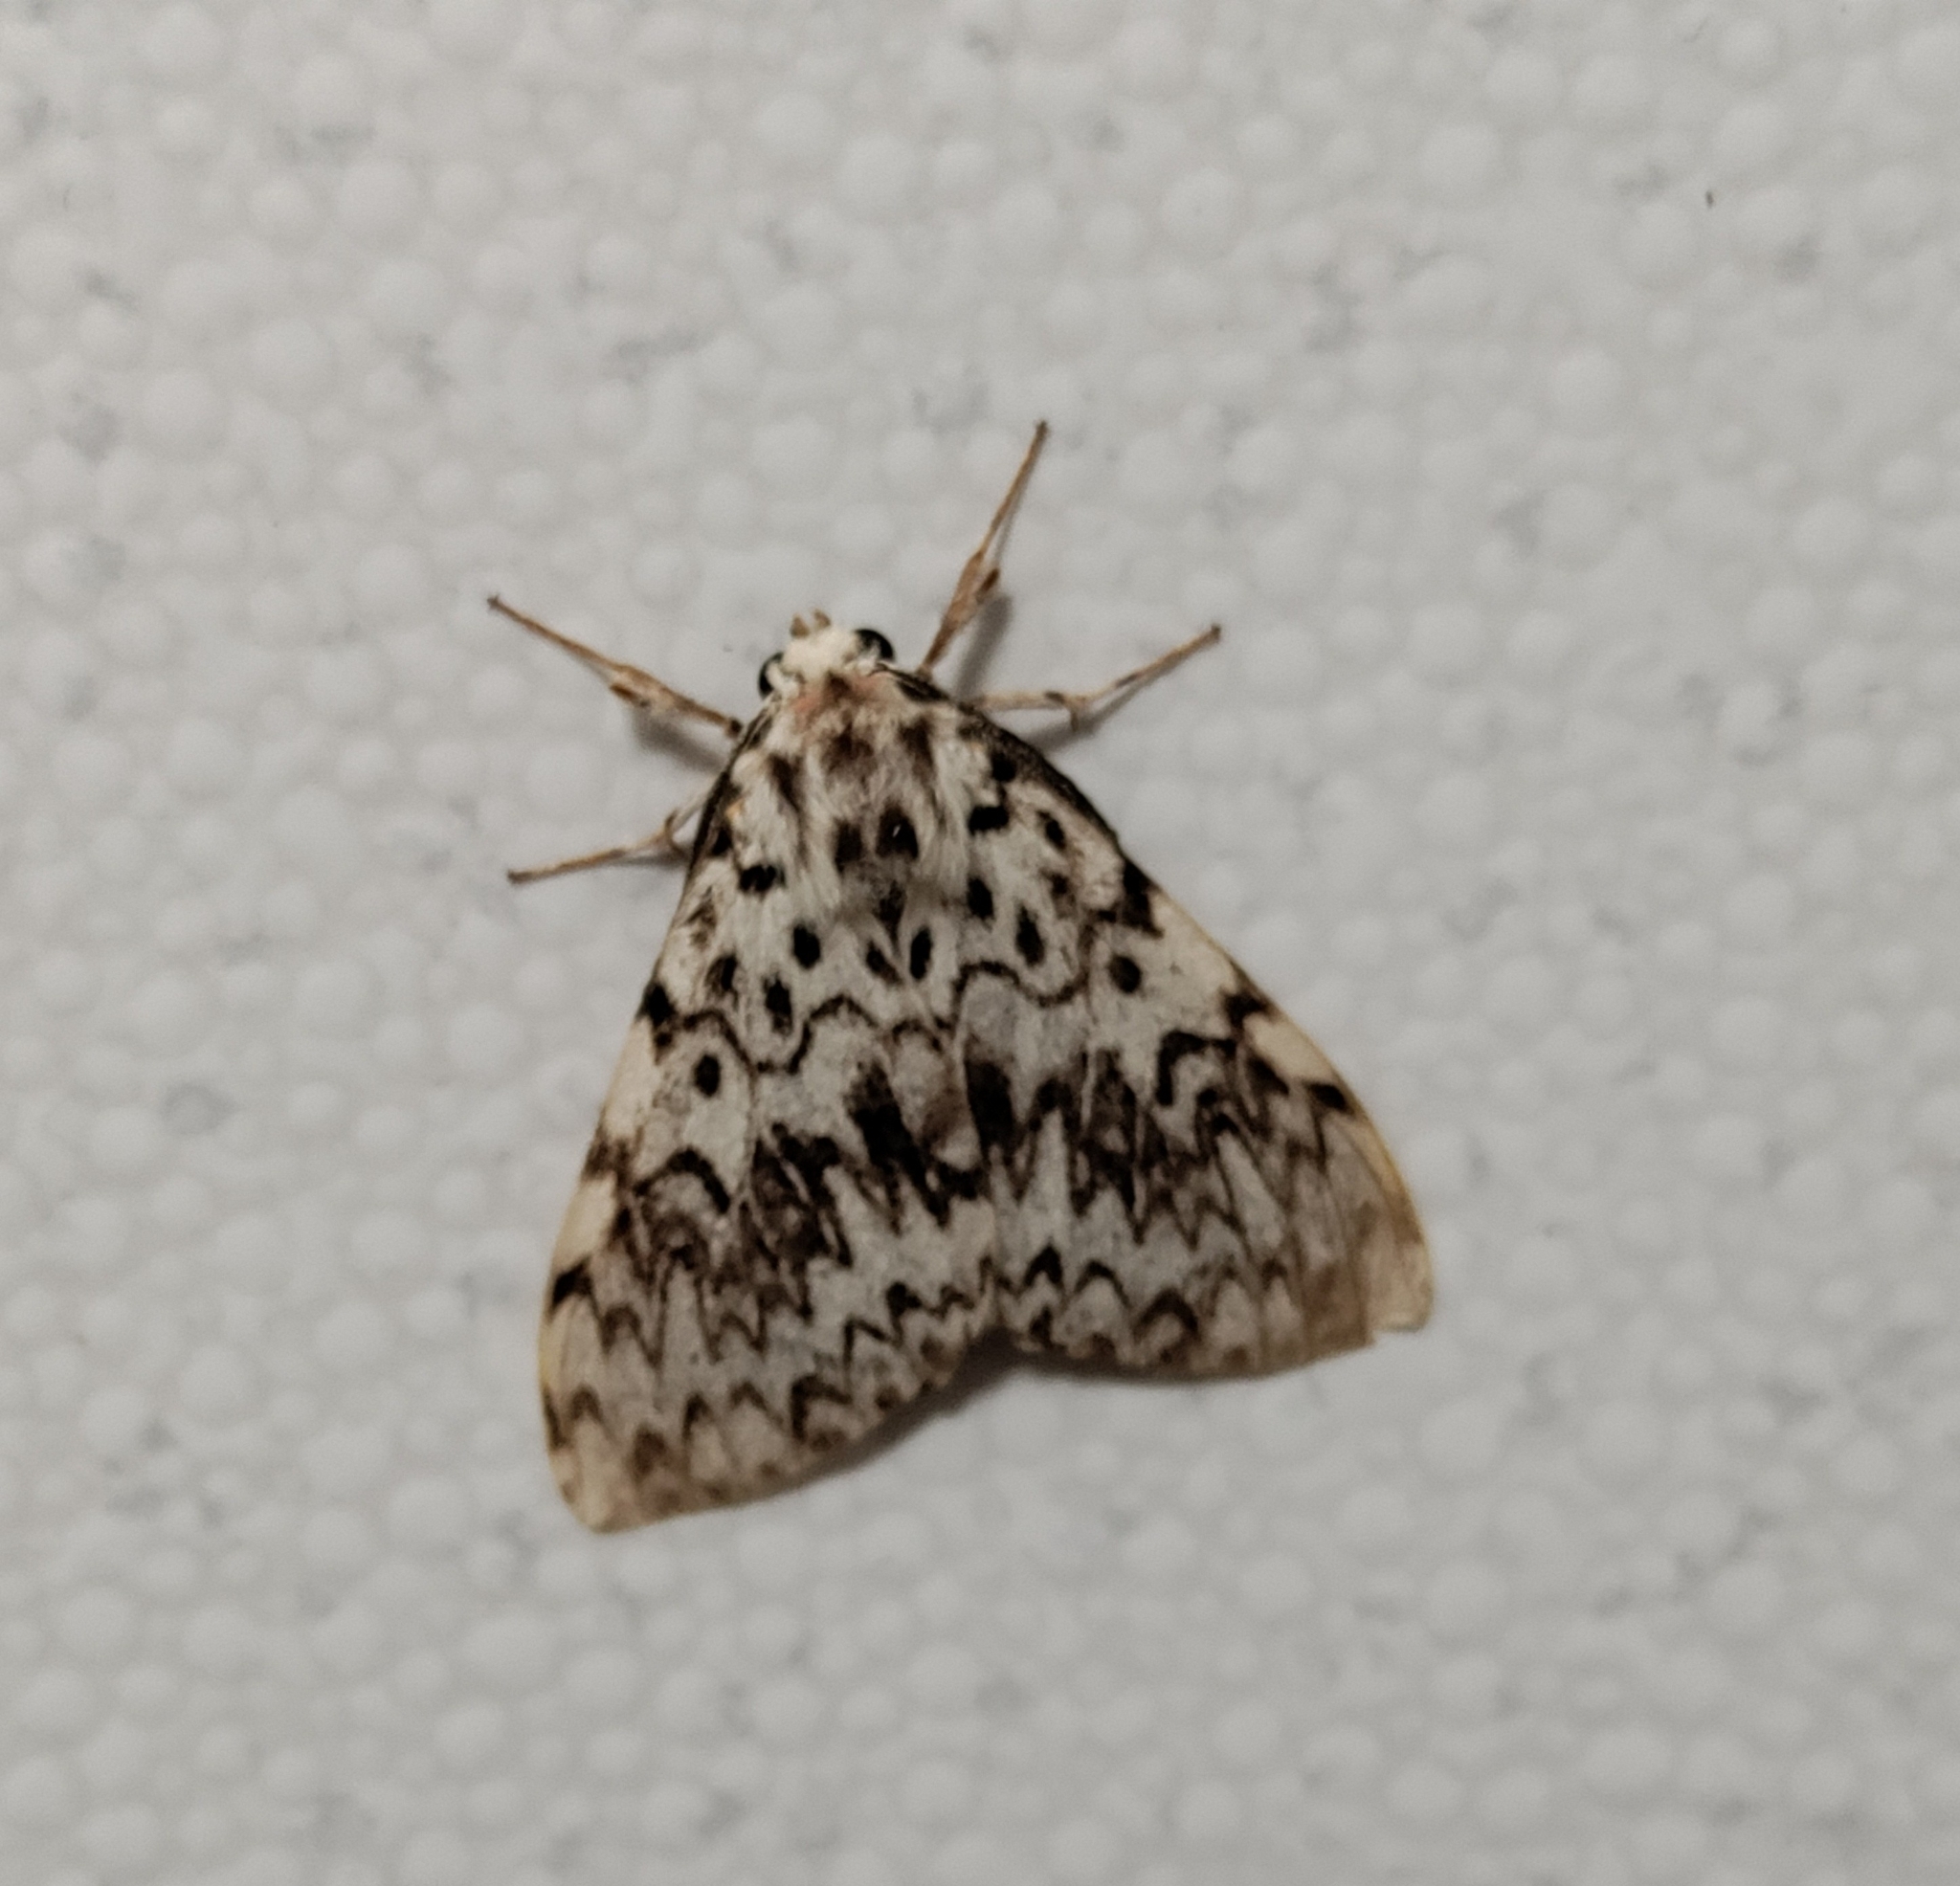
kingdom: Animalia
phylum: Arthropoda
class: Insecta
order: Lepidoptera
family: Erebidae
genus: Lymantria
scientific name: Lymantria monacha
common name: Black arches
